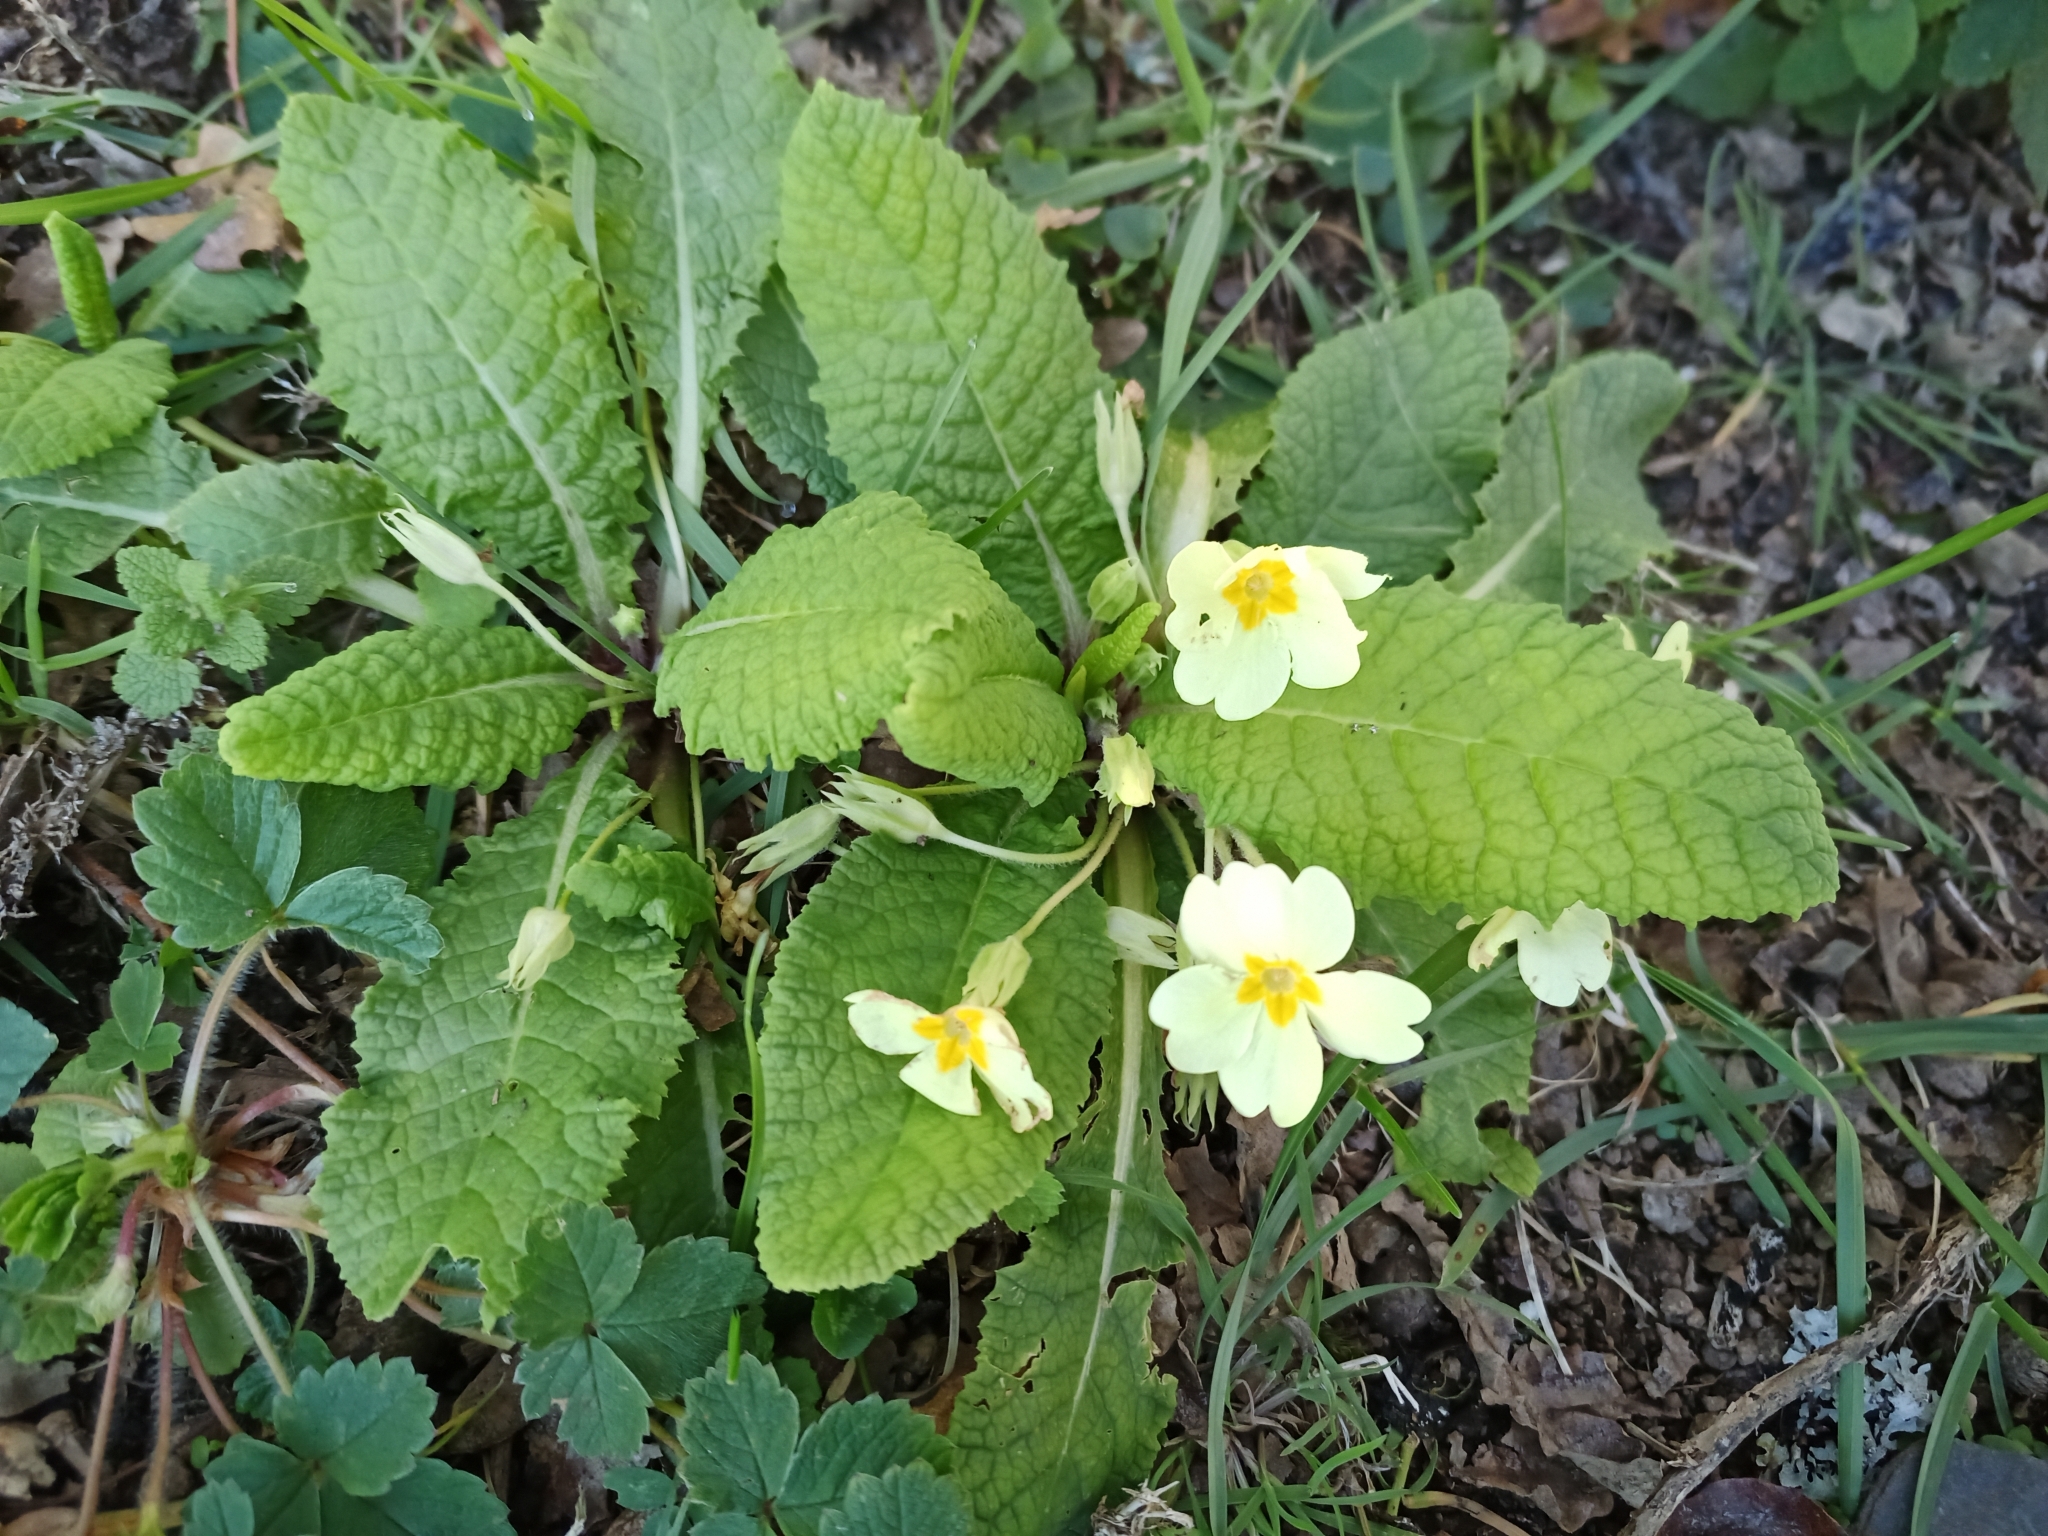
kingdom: Plantae
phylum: Tracheophyta
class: Magnoliopsida
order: Ericales
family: Primulaceae
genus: Primula
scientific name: Primula vulgaris
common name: Primrose
